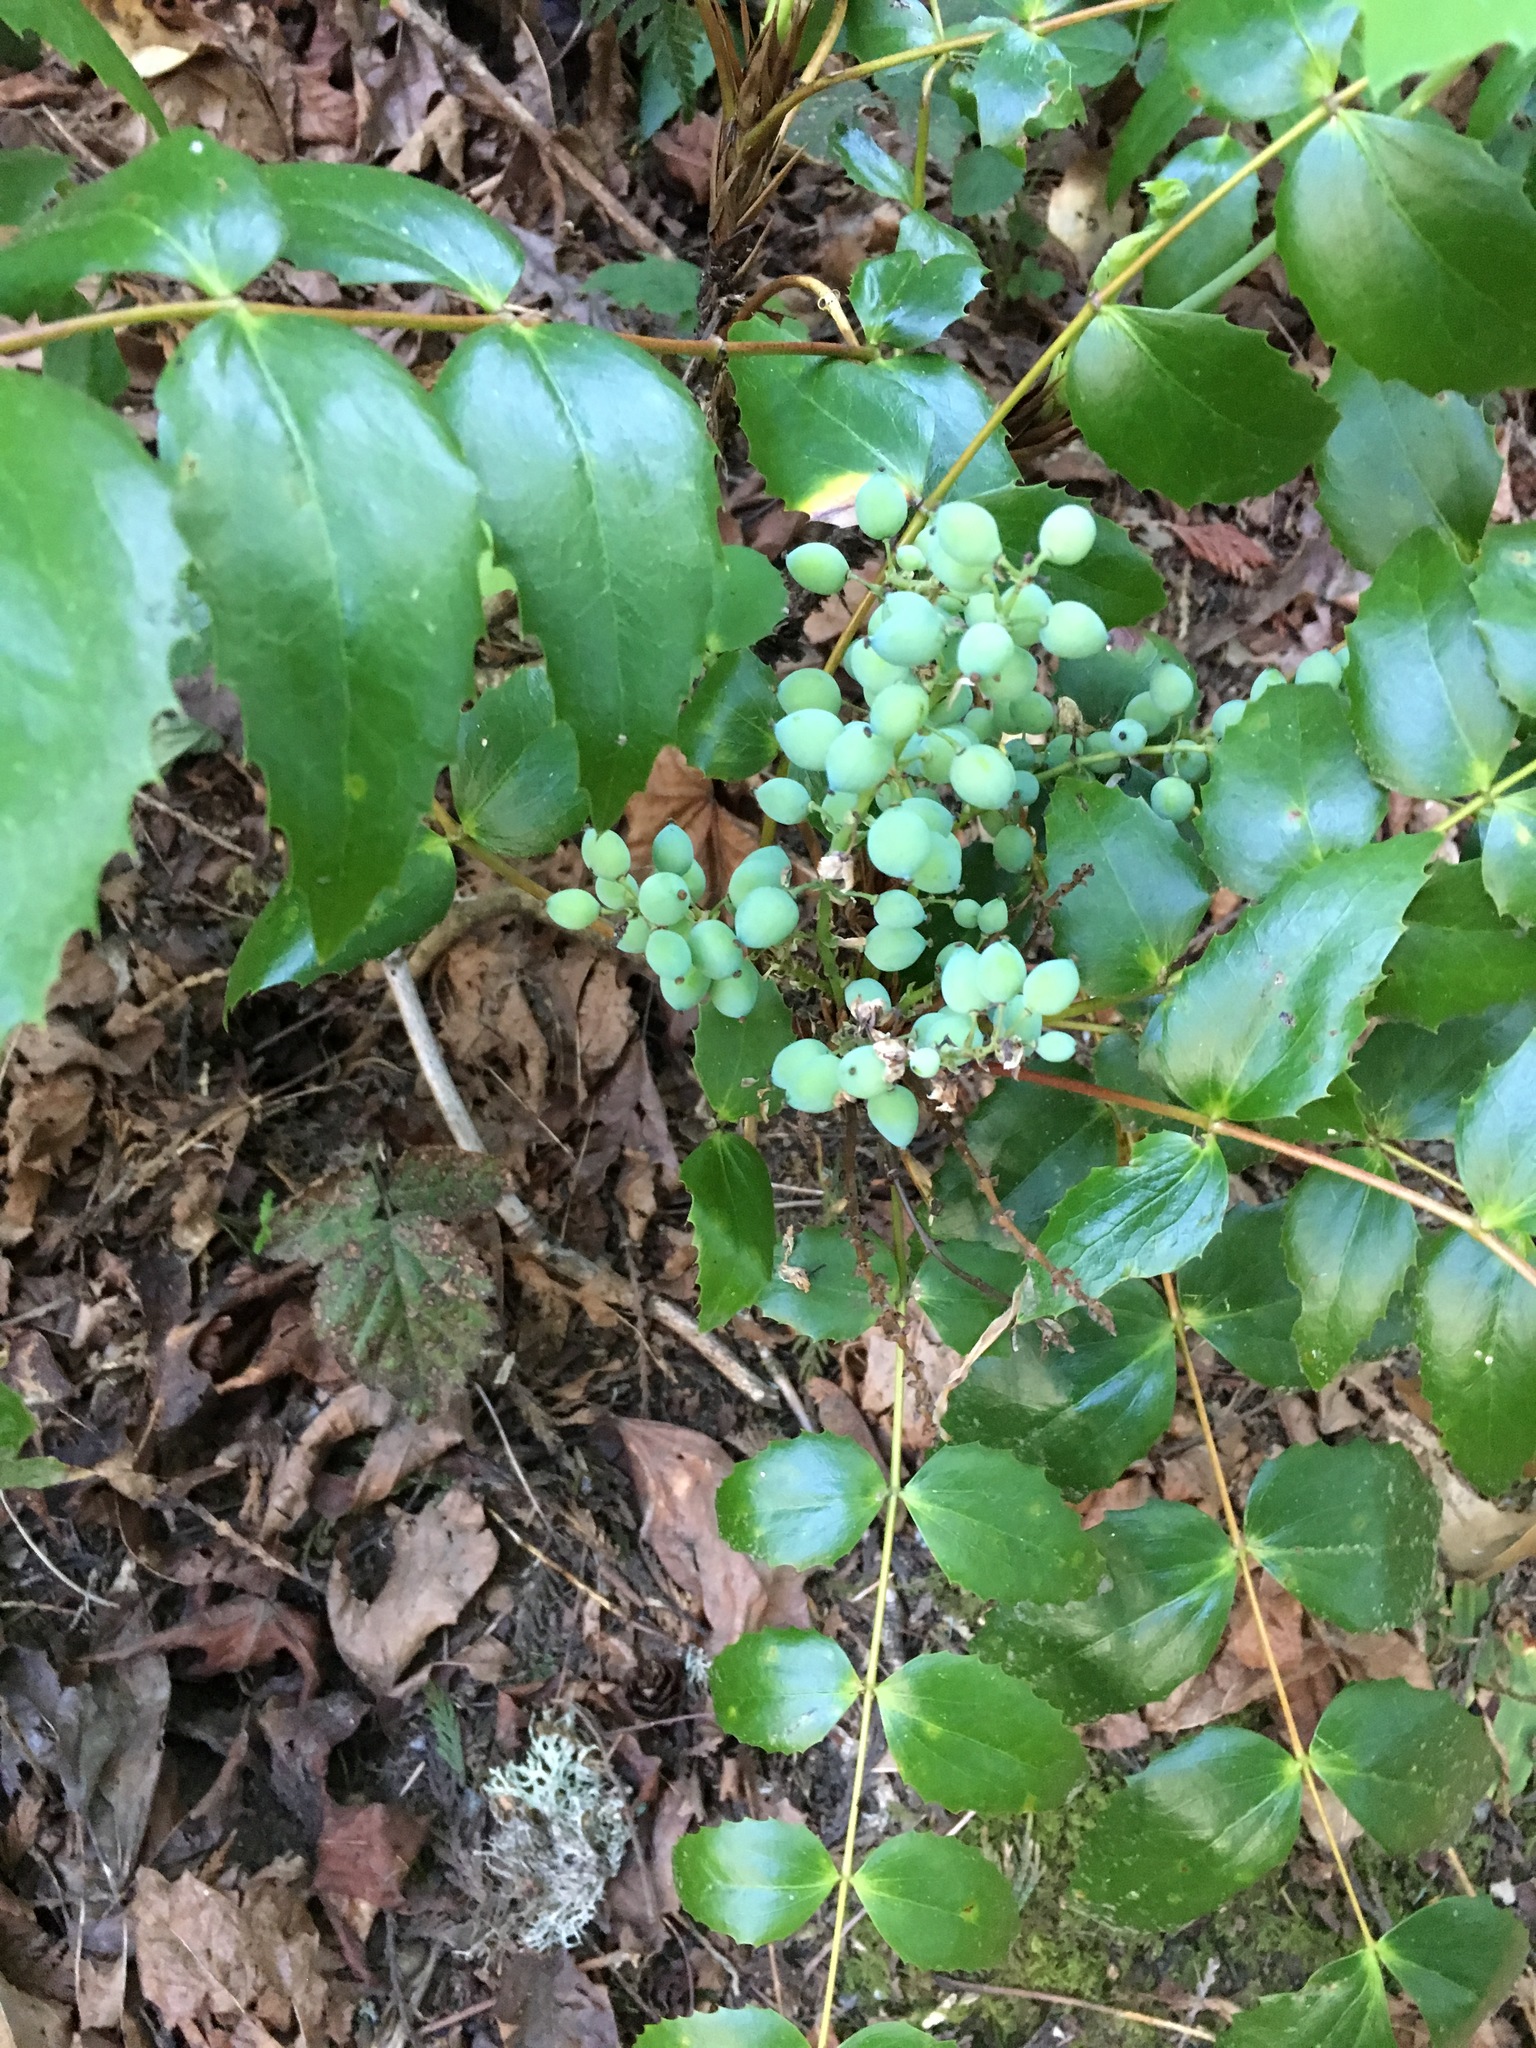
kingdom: Plantae
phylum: Tracheophyta
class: Magnoliopsida
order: Ranunculales
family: Berberidaceae
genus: Mahonia
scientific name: Mahonia nervosa
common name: Cascade oregon-grape
